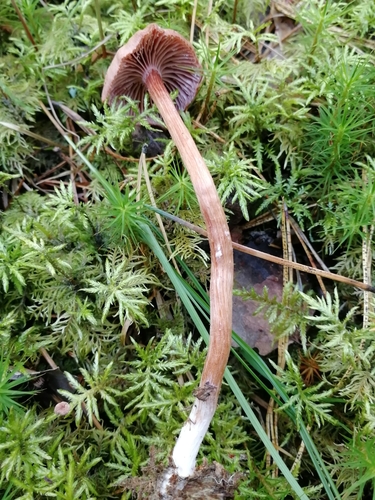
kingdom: Fungi
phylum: Basidiomycota
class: Agaricomycetes
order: Agaricales
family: Hydnangiaceae
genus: Laccaria
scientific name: Laccaria bicolor
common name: Bicoloured deceiver
